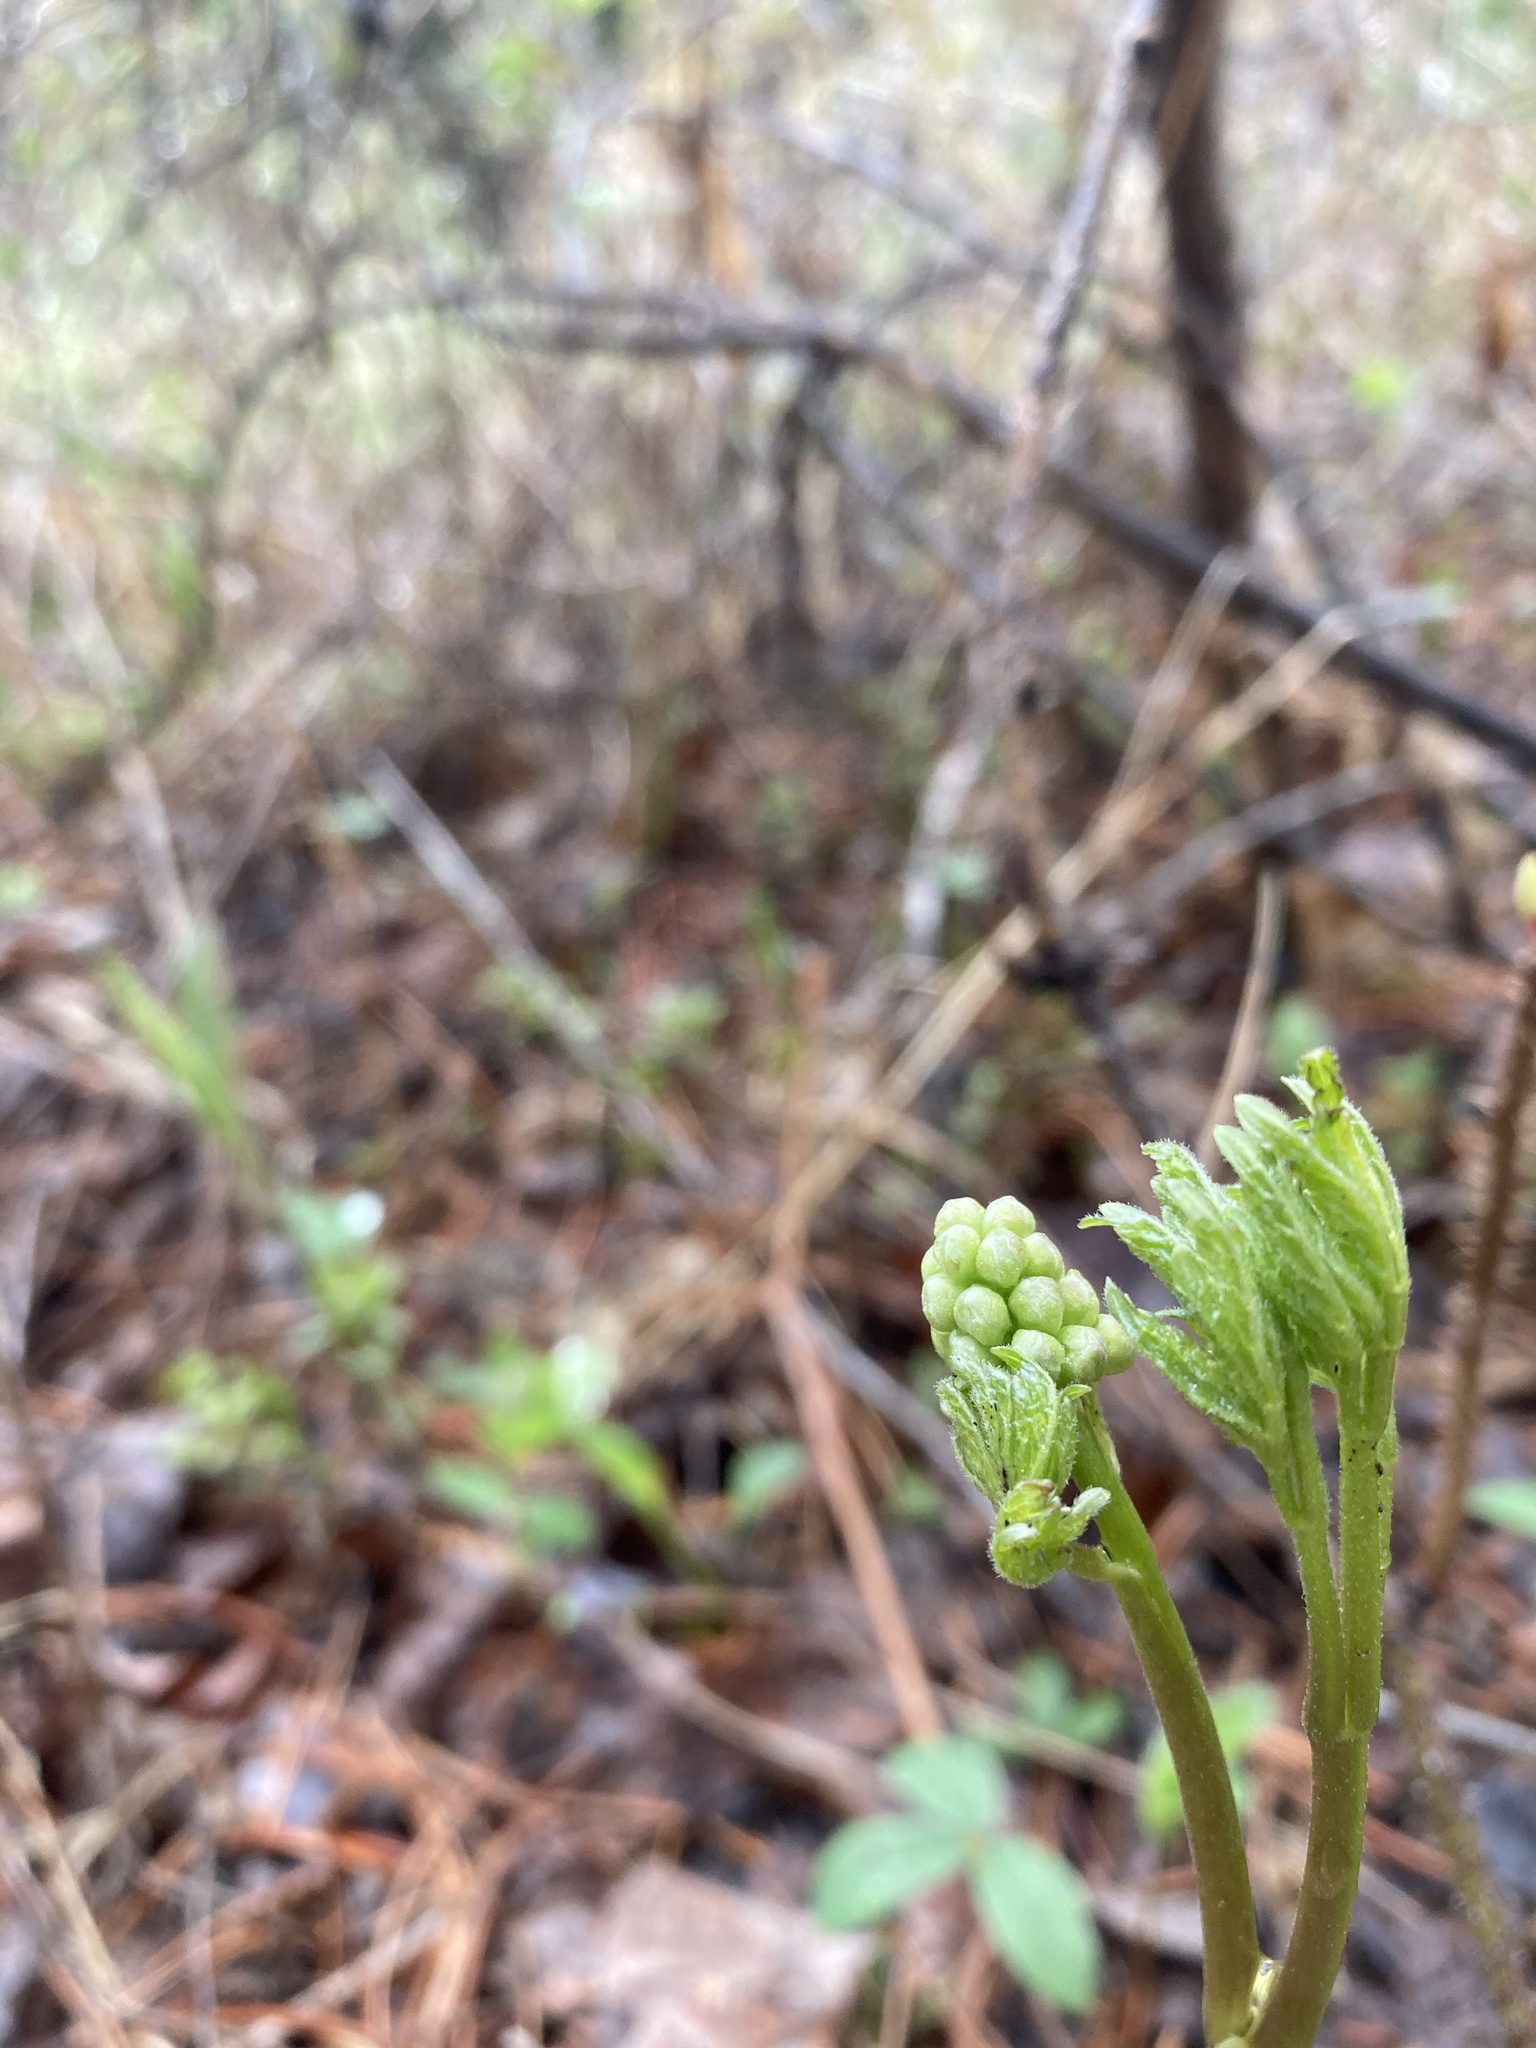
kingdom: Plantae
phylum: Tracheophyta
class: Magnoliopsida
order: Ranunculales
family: Ranunculaceae
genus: Actaea
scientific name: Actaea rubra
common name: Red baneberry
